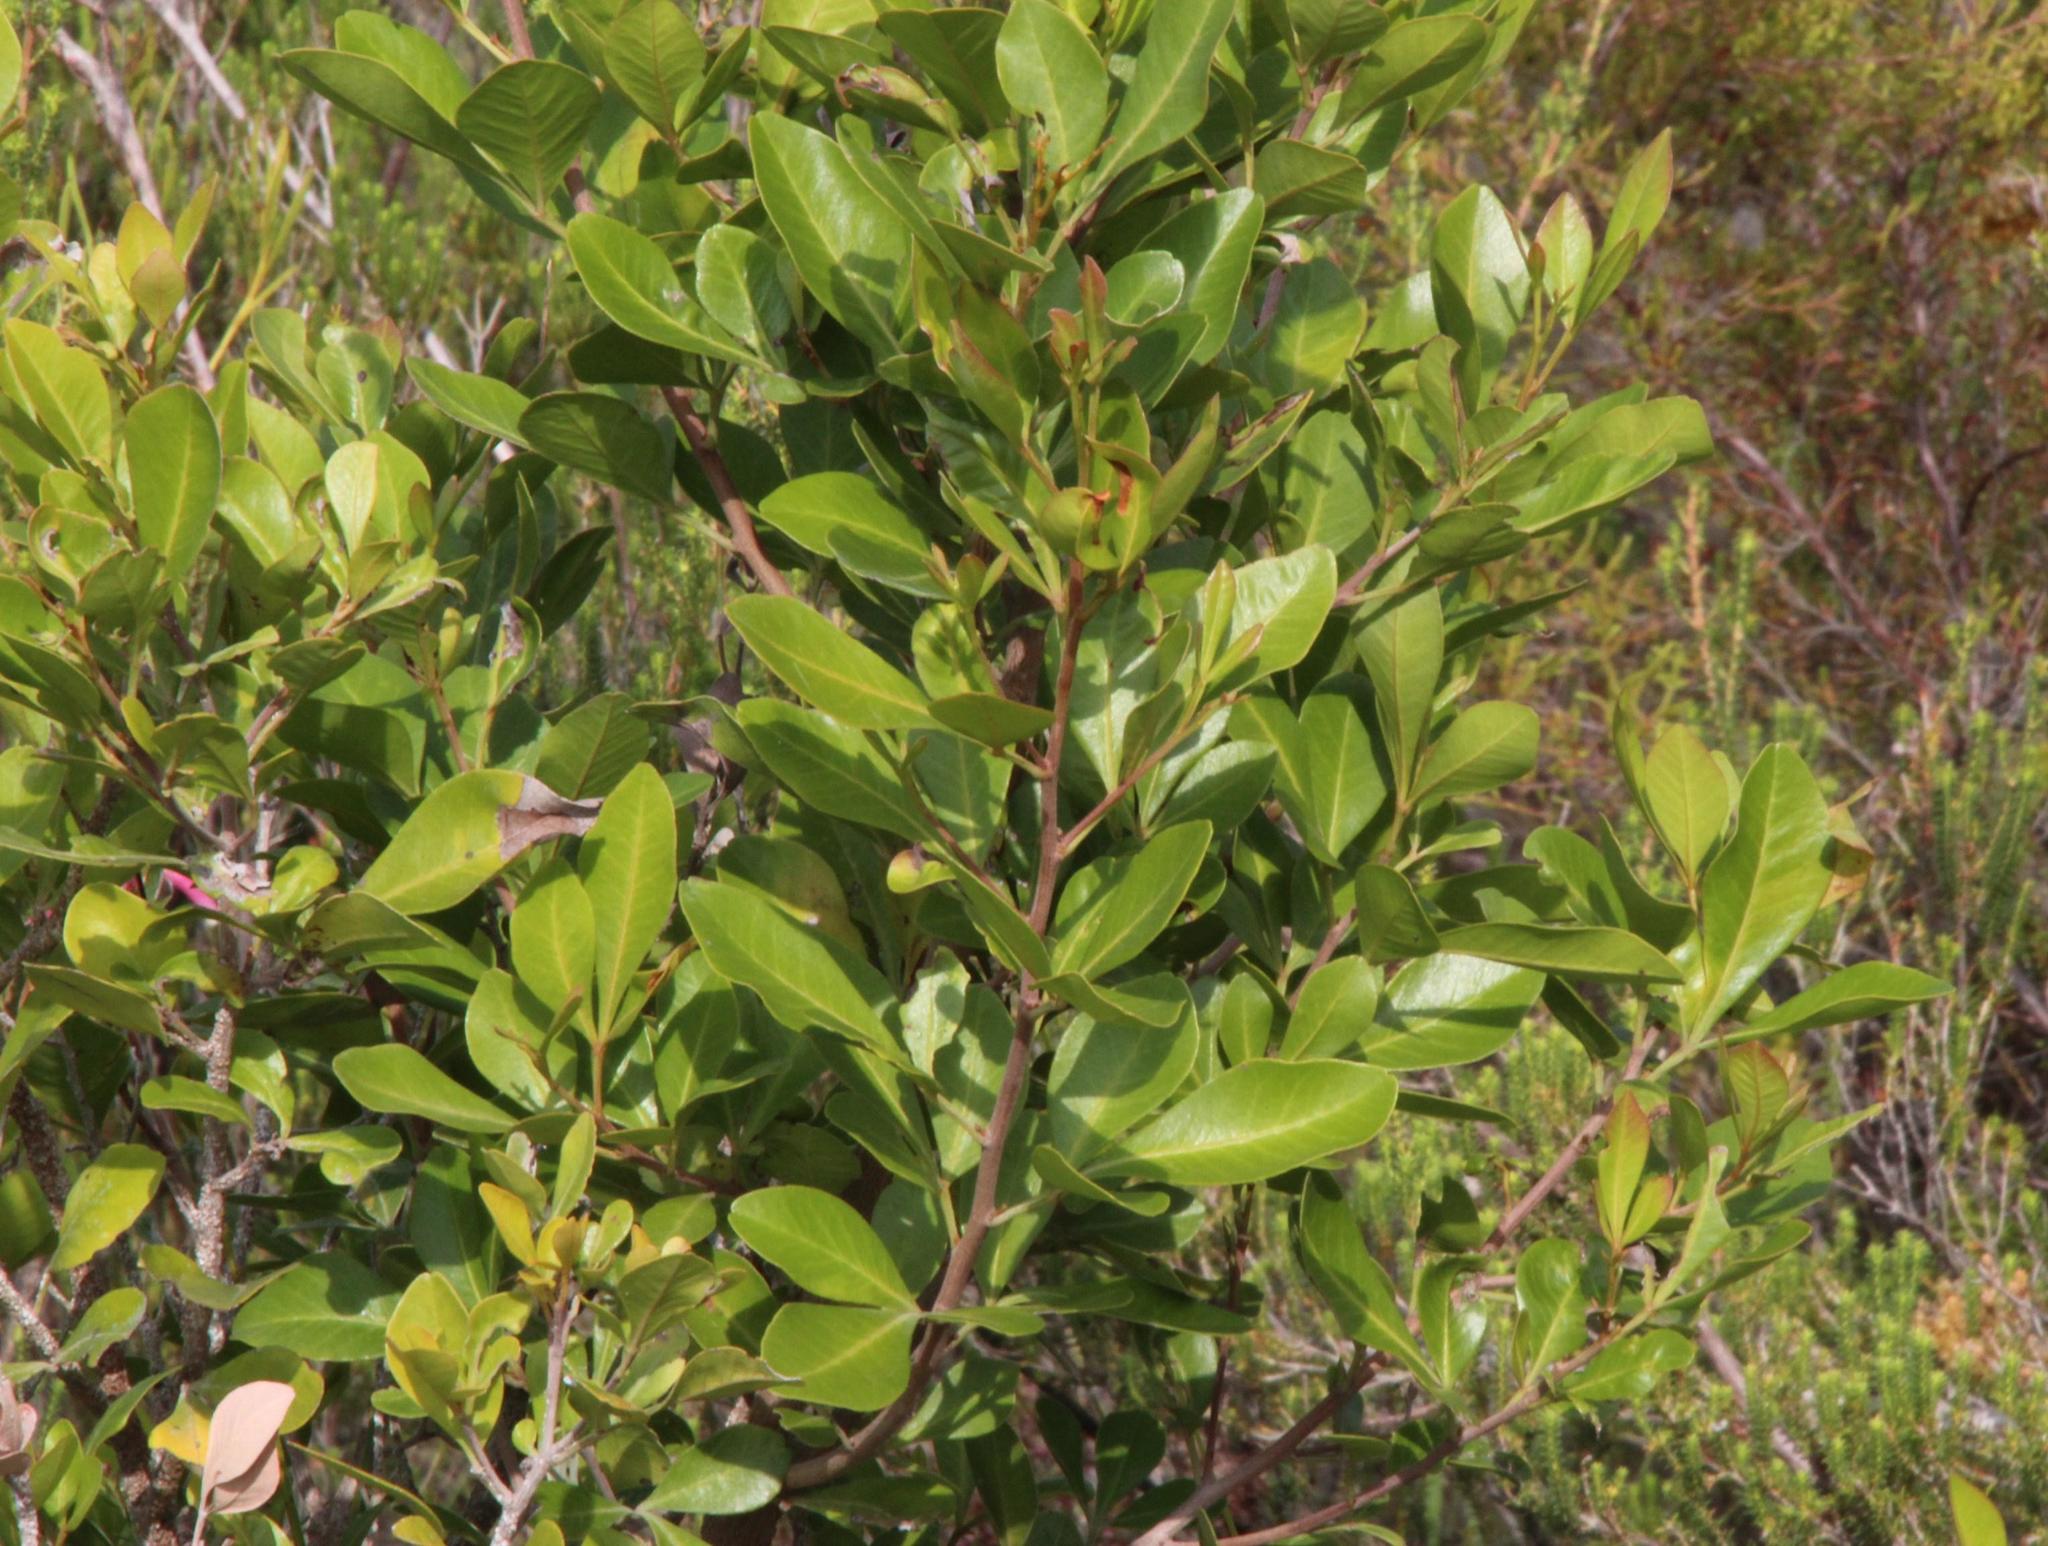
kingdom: Plantae
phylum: Tracheophyta
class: Magnoliopsida
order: Sapindales
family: Anacardiaceae
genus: Searsia
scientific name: Searsia lucida
